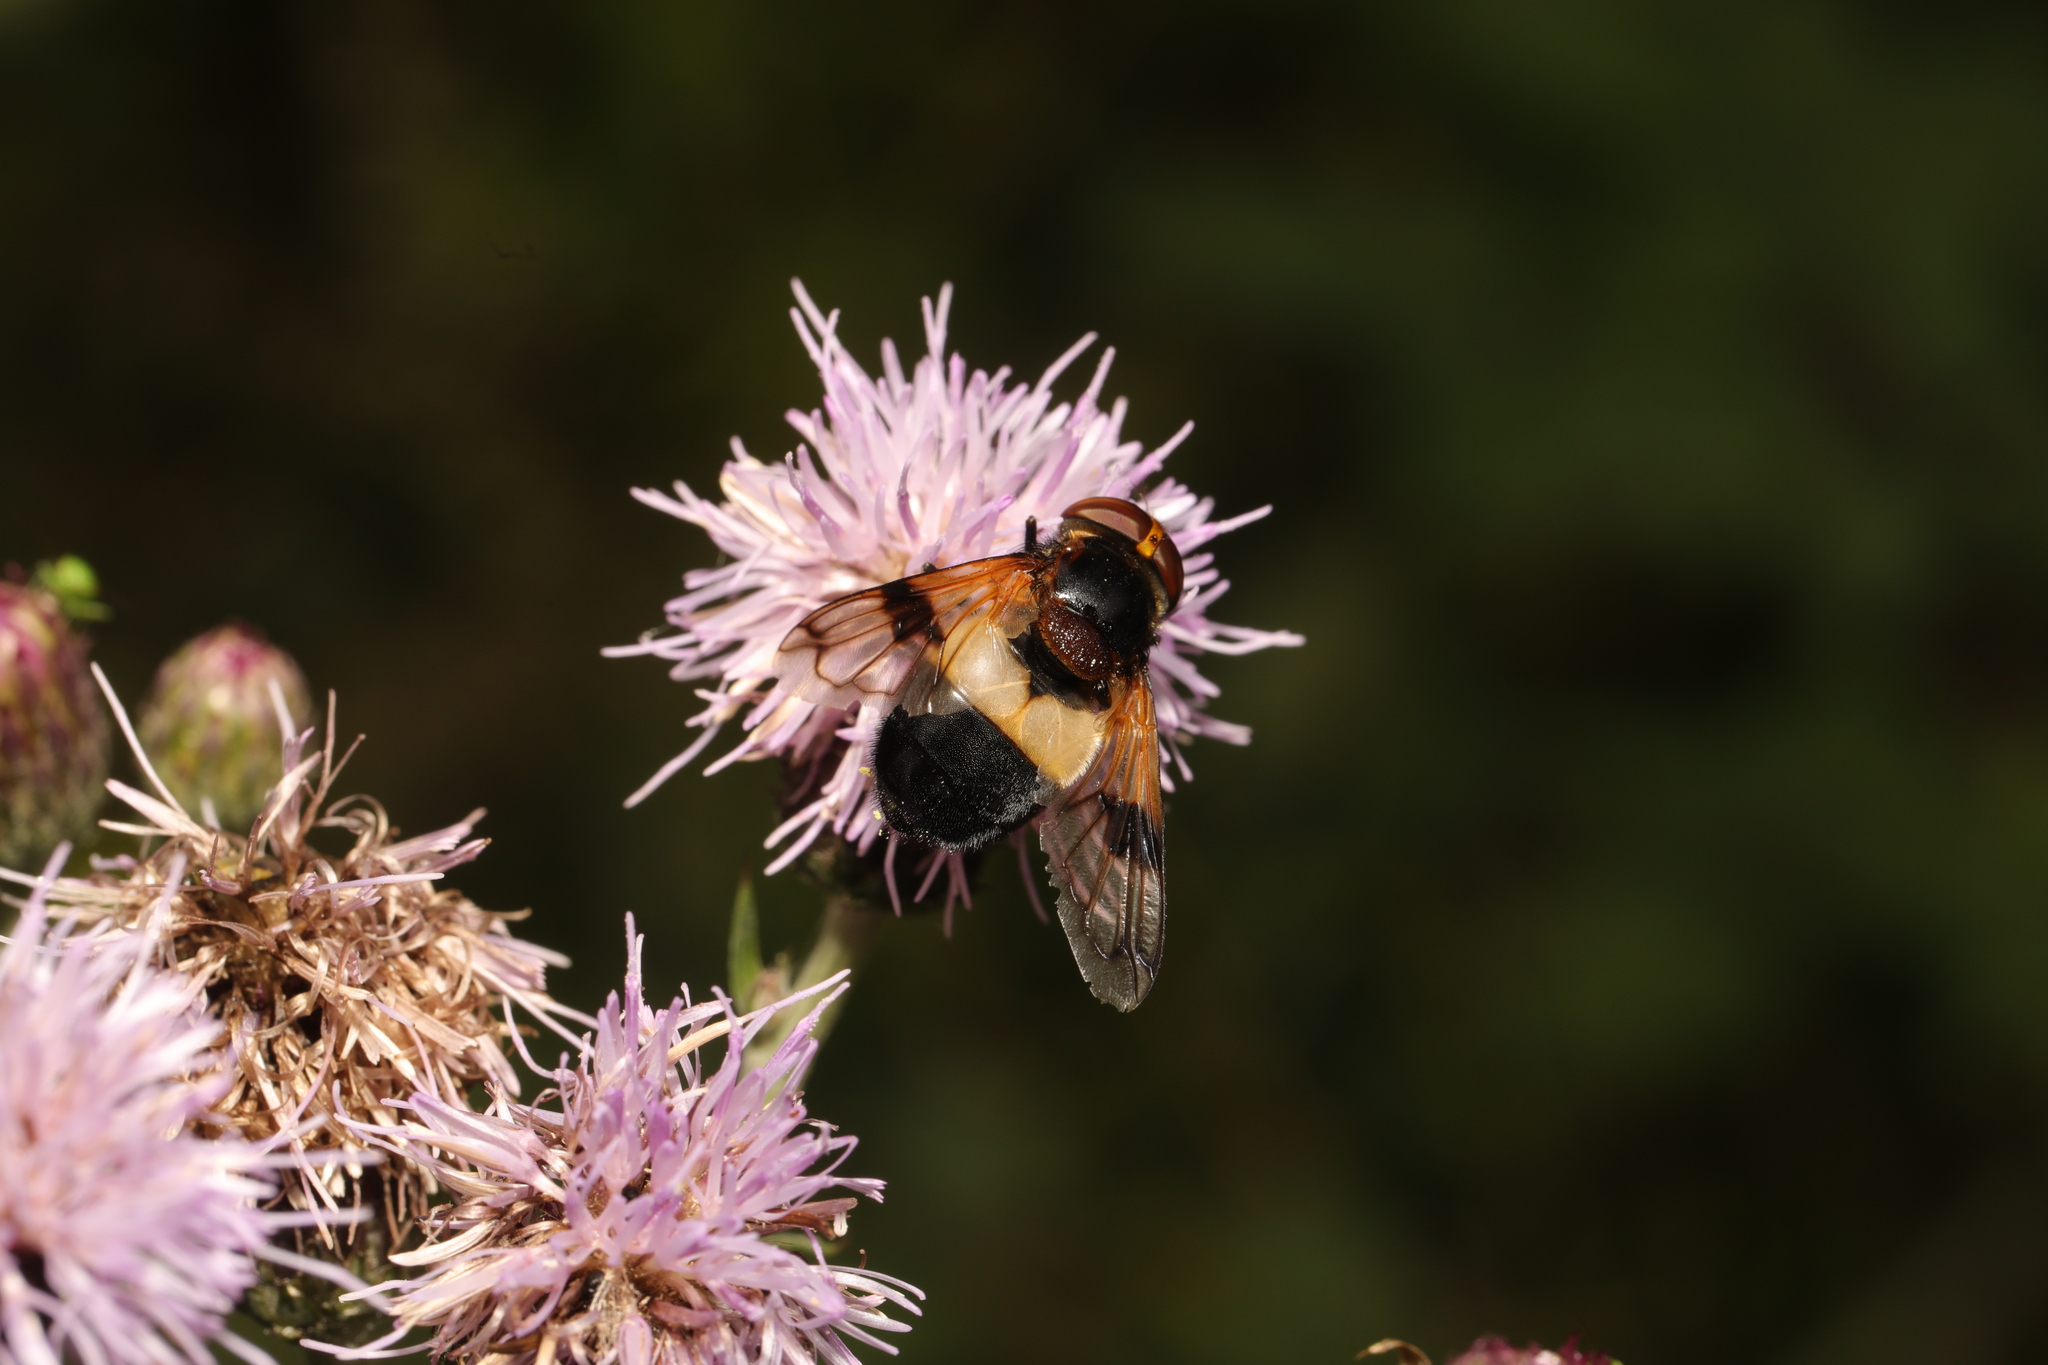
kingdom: Animalia
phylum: Arthropoda
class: Insecta
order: Diptera
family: Syrphidae
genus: Volucella
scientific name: Volucella pellucens
